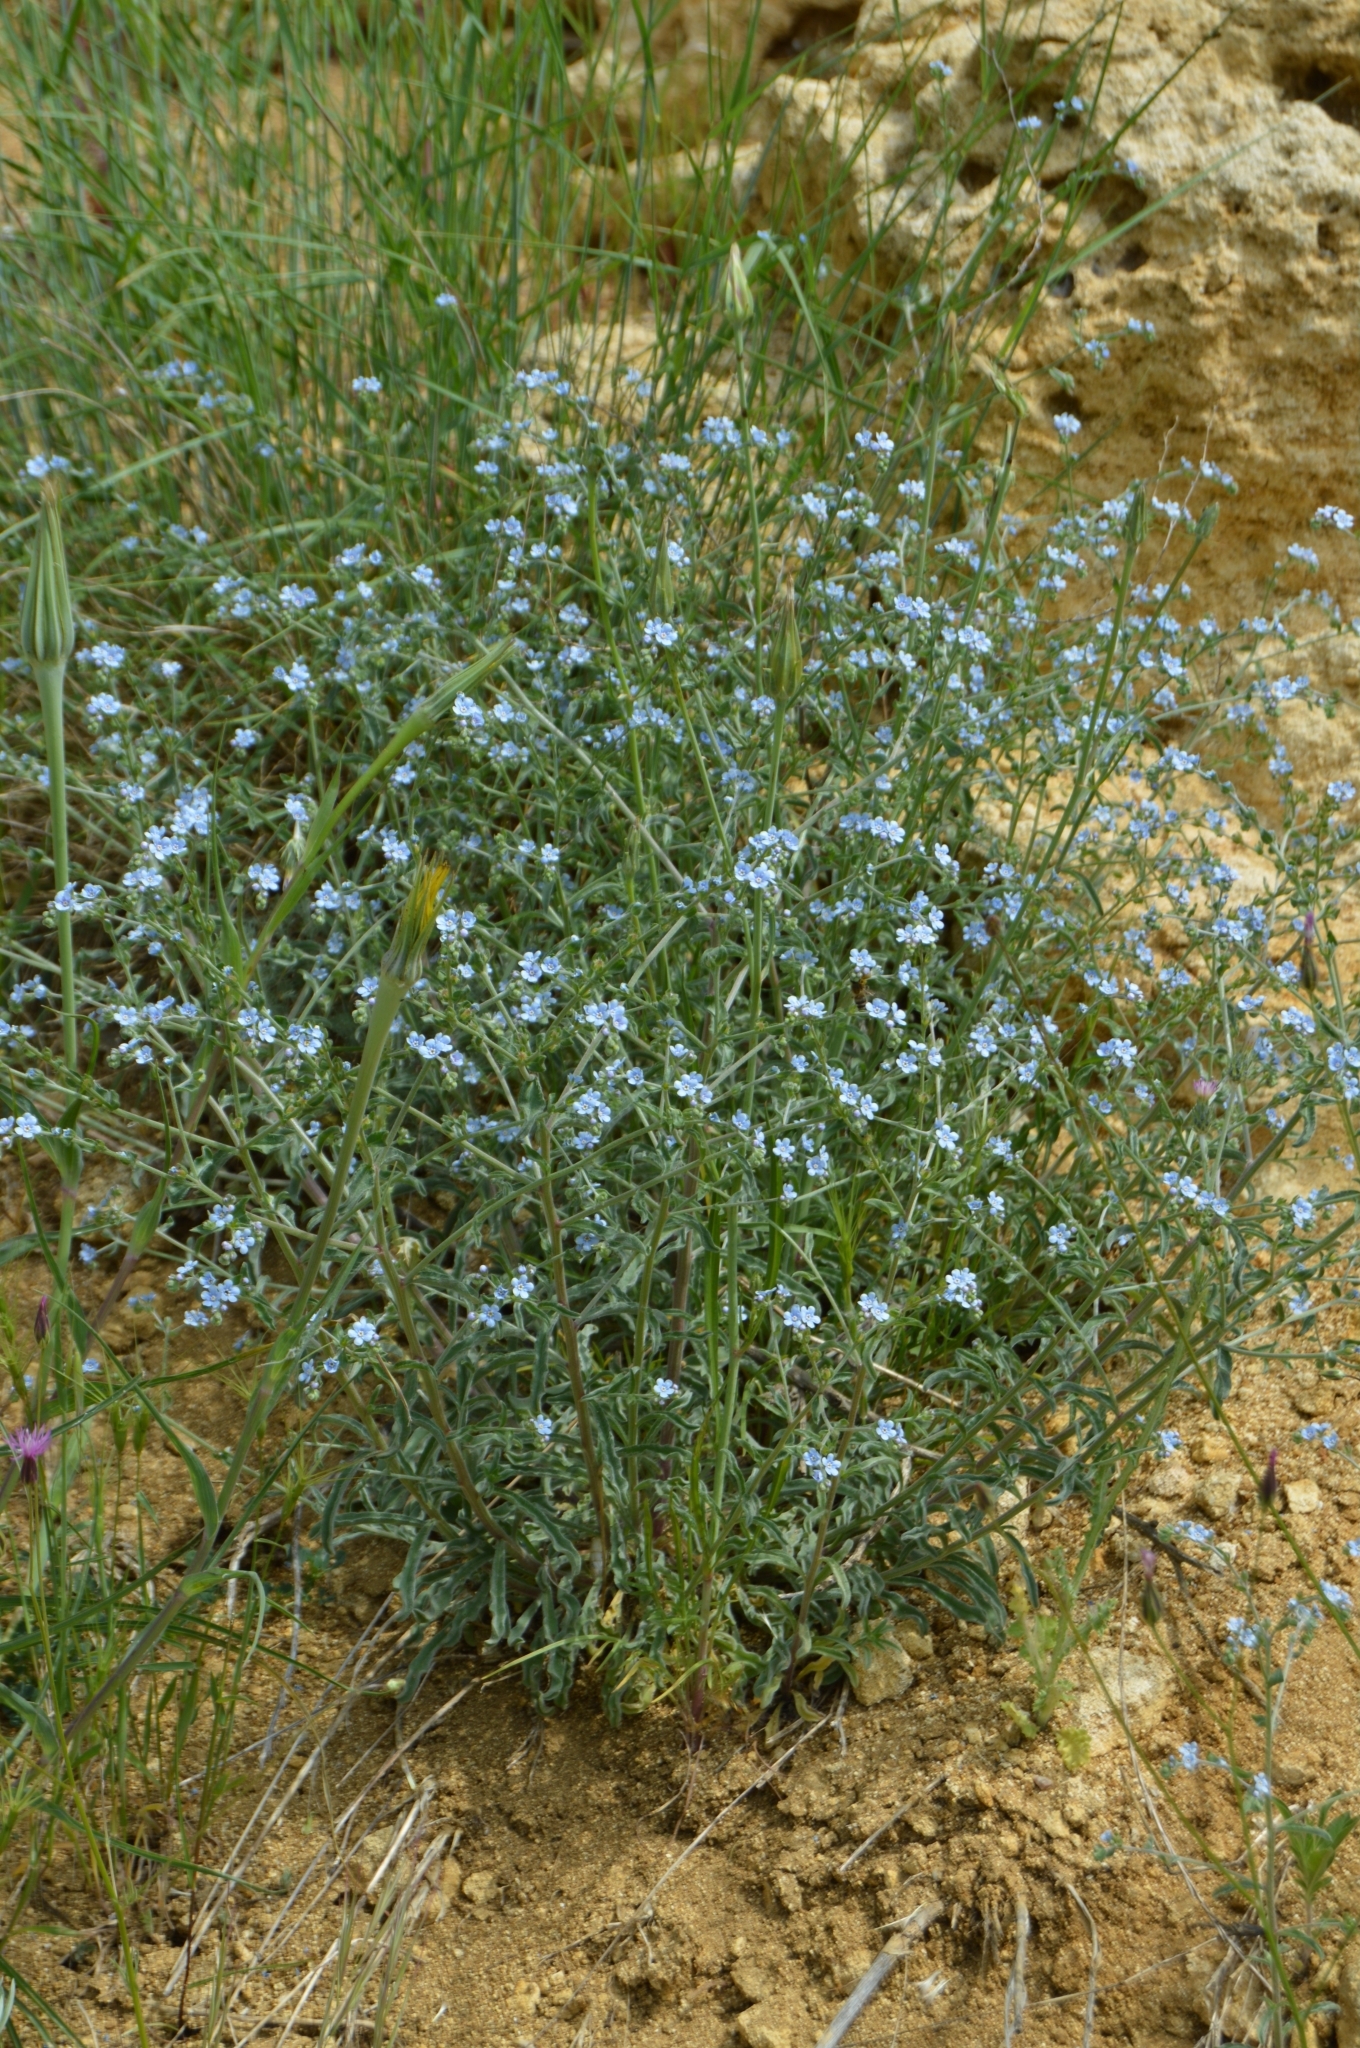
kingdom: Plantae
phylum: Tracheophyta
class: Magnoliopsida
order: Boraginales
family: Boraginaceae
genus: Lappula
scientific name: Lappula barbata
